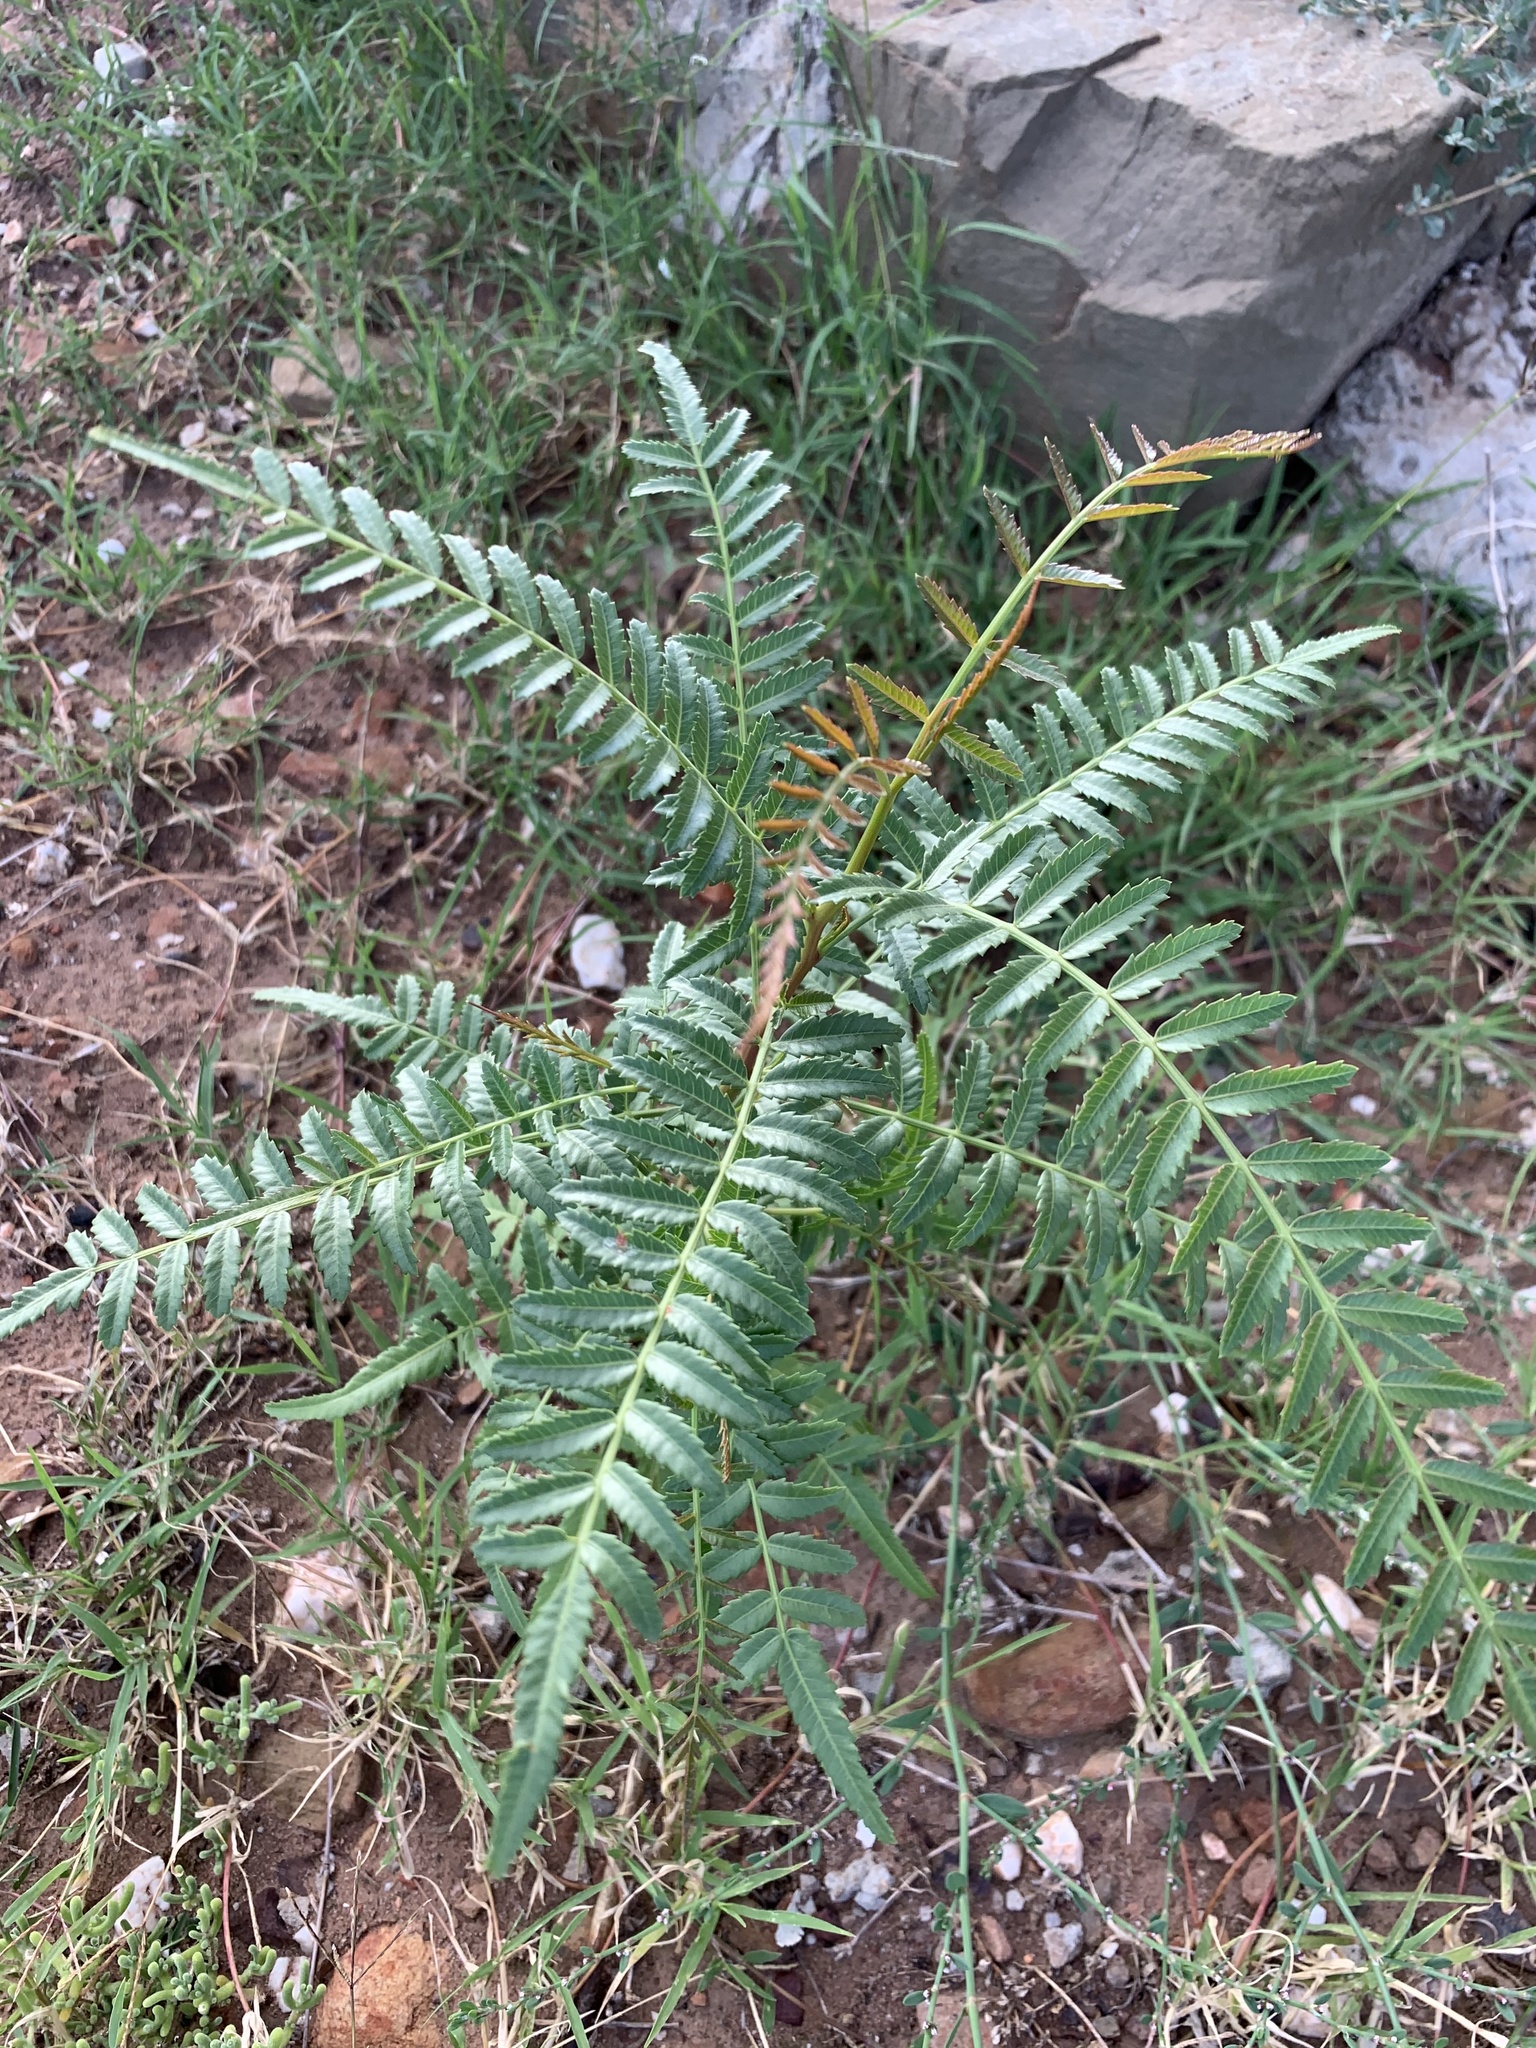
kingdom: Plantae
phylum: Tracheophyta
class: Magnoliopsida
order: Sapindales
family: Anacardiaceae
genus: Schinus
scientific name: Schinus molle
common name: Peruvian peppertree
